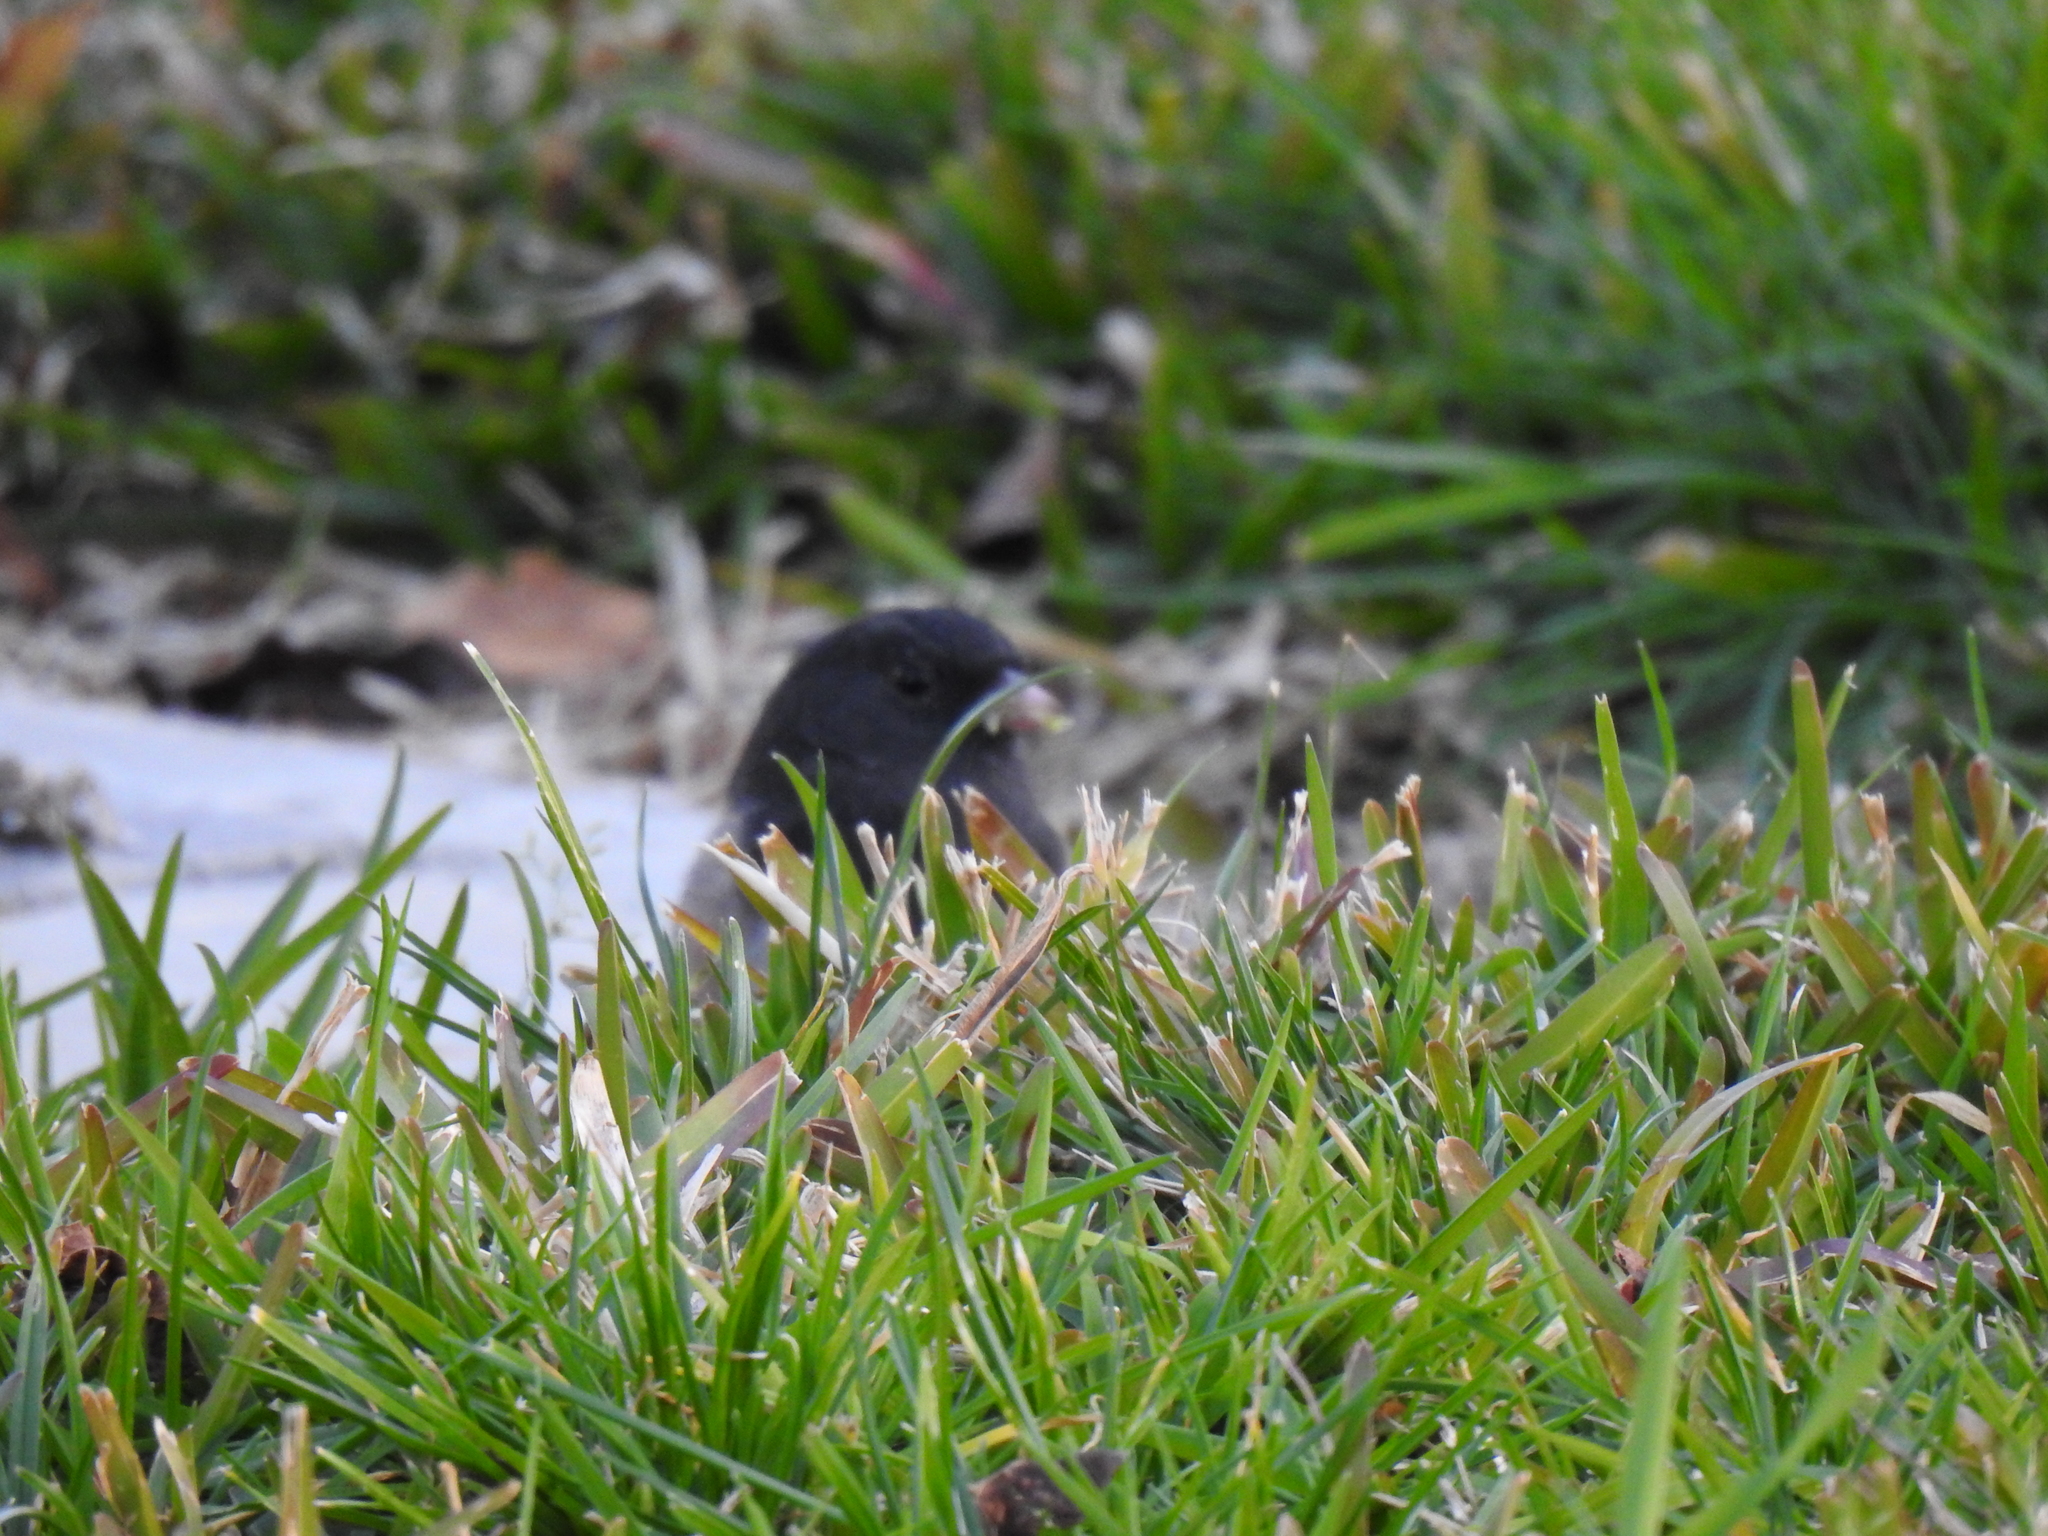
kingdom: Animalia
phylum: Chordata
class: Aves
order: Passeriformes
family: Passerellidae
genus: Junco
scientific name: Junco hyemalis
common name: Dark-eyed junco
